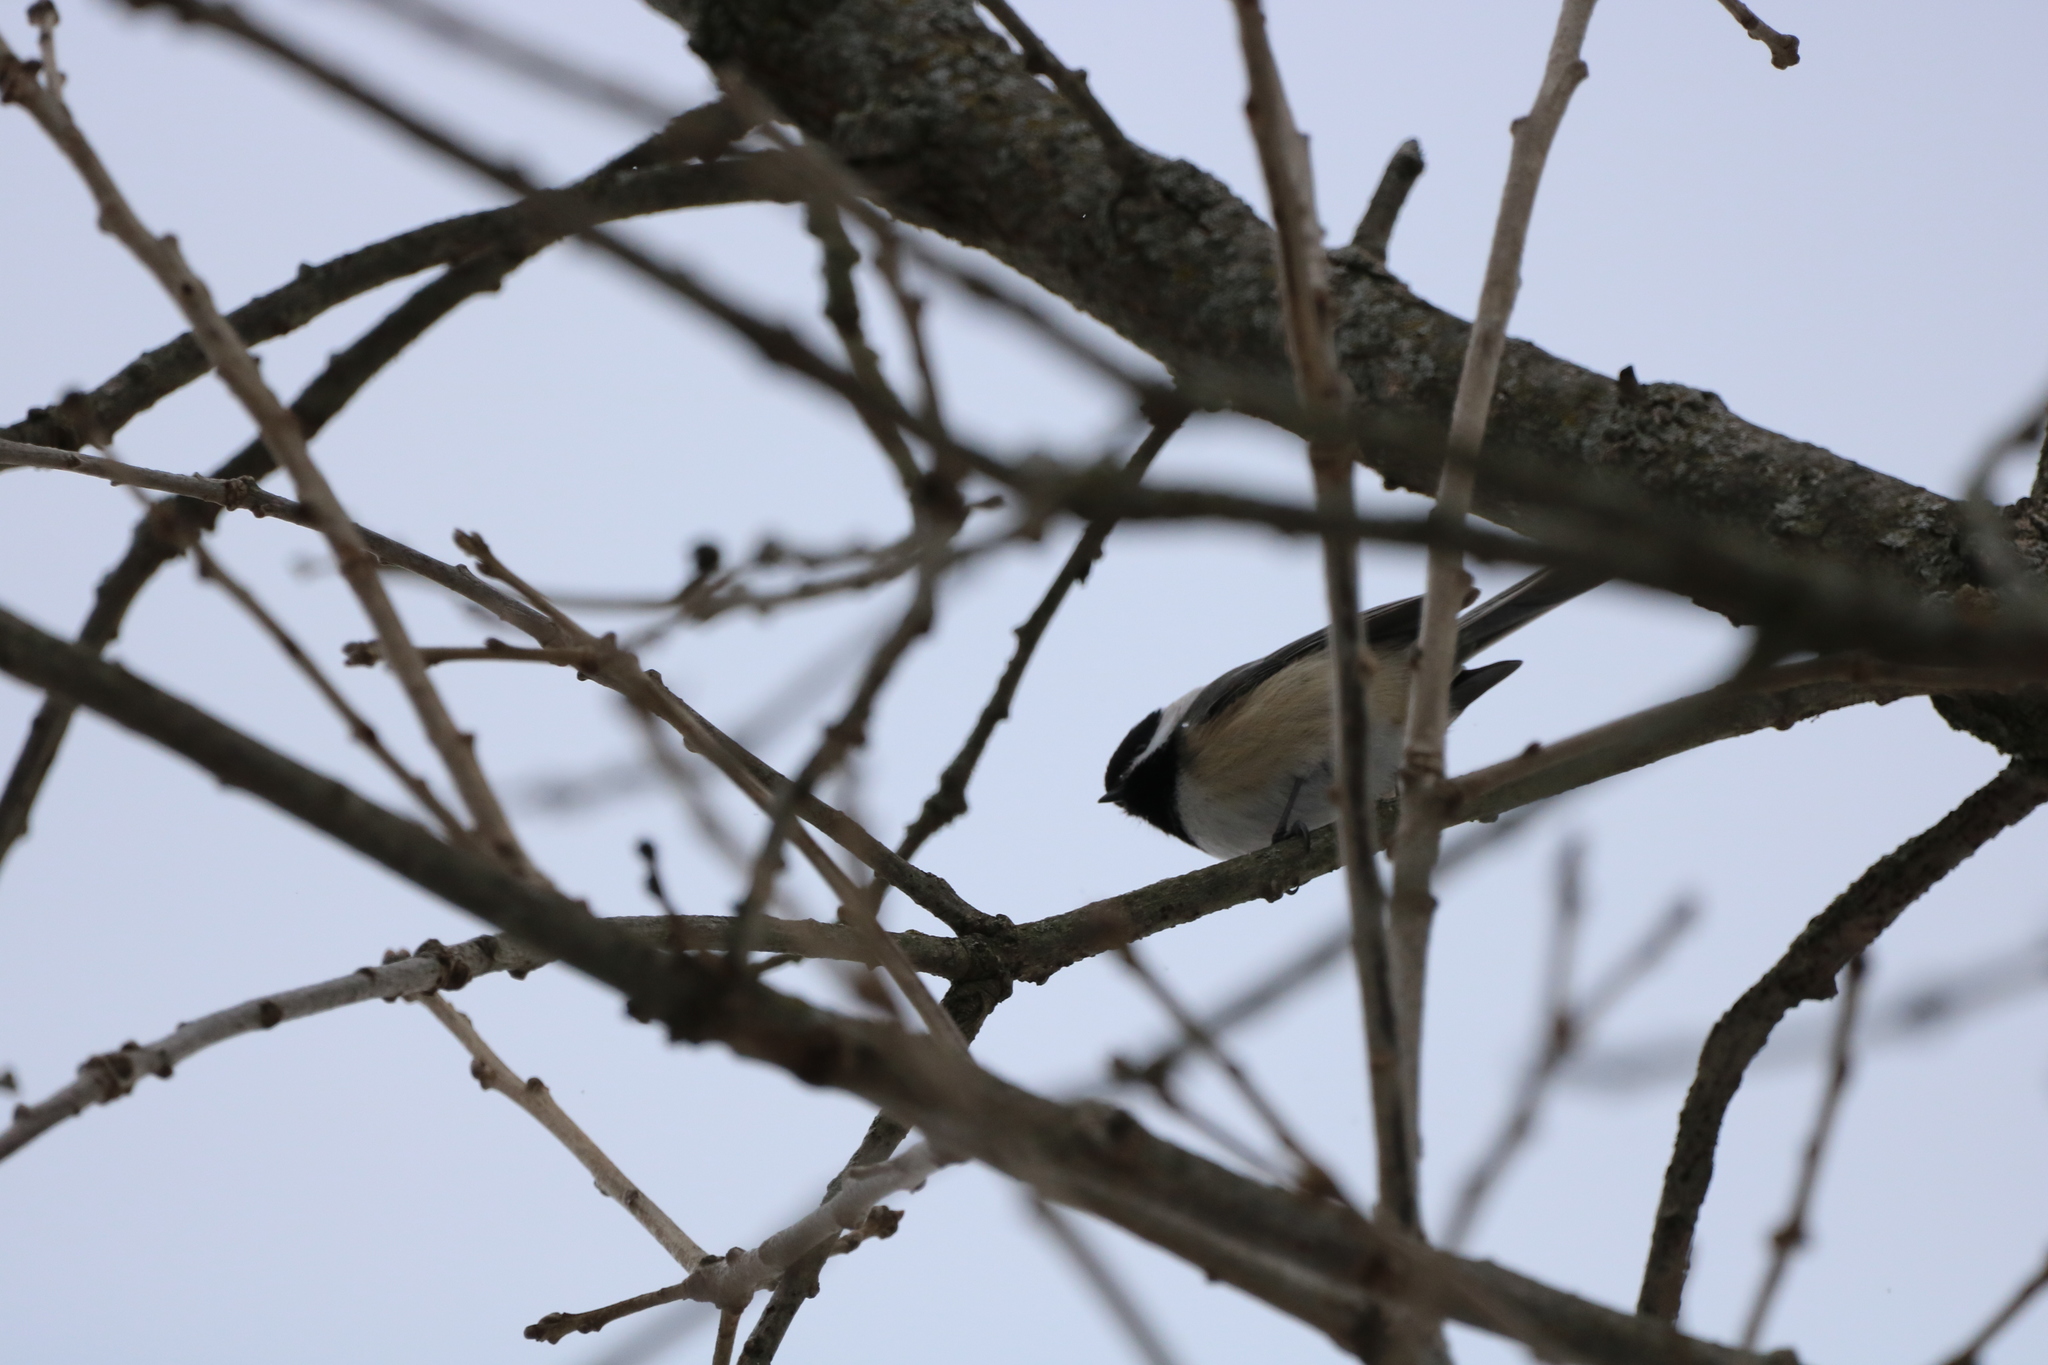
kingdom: Animalia
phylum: Chordata
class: Aves
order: Passeriformes
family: Turdidae
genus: Sialia
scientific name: Sialia sialis
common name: Eastern bluebird
